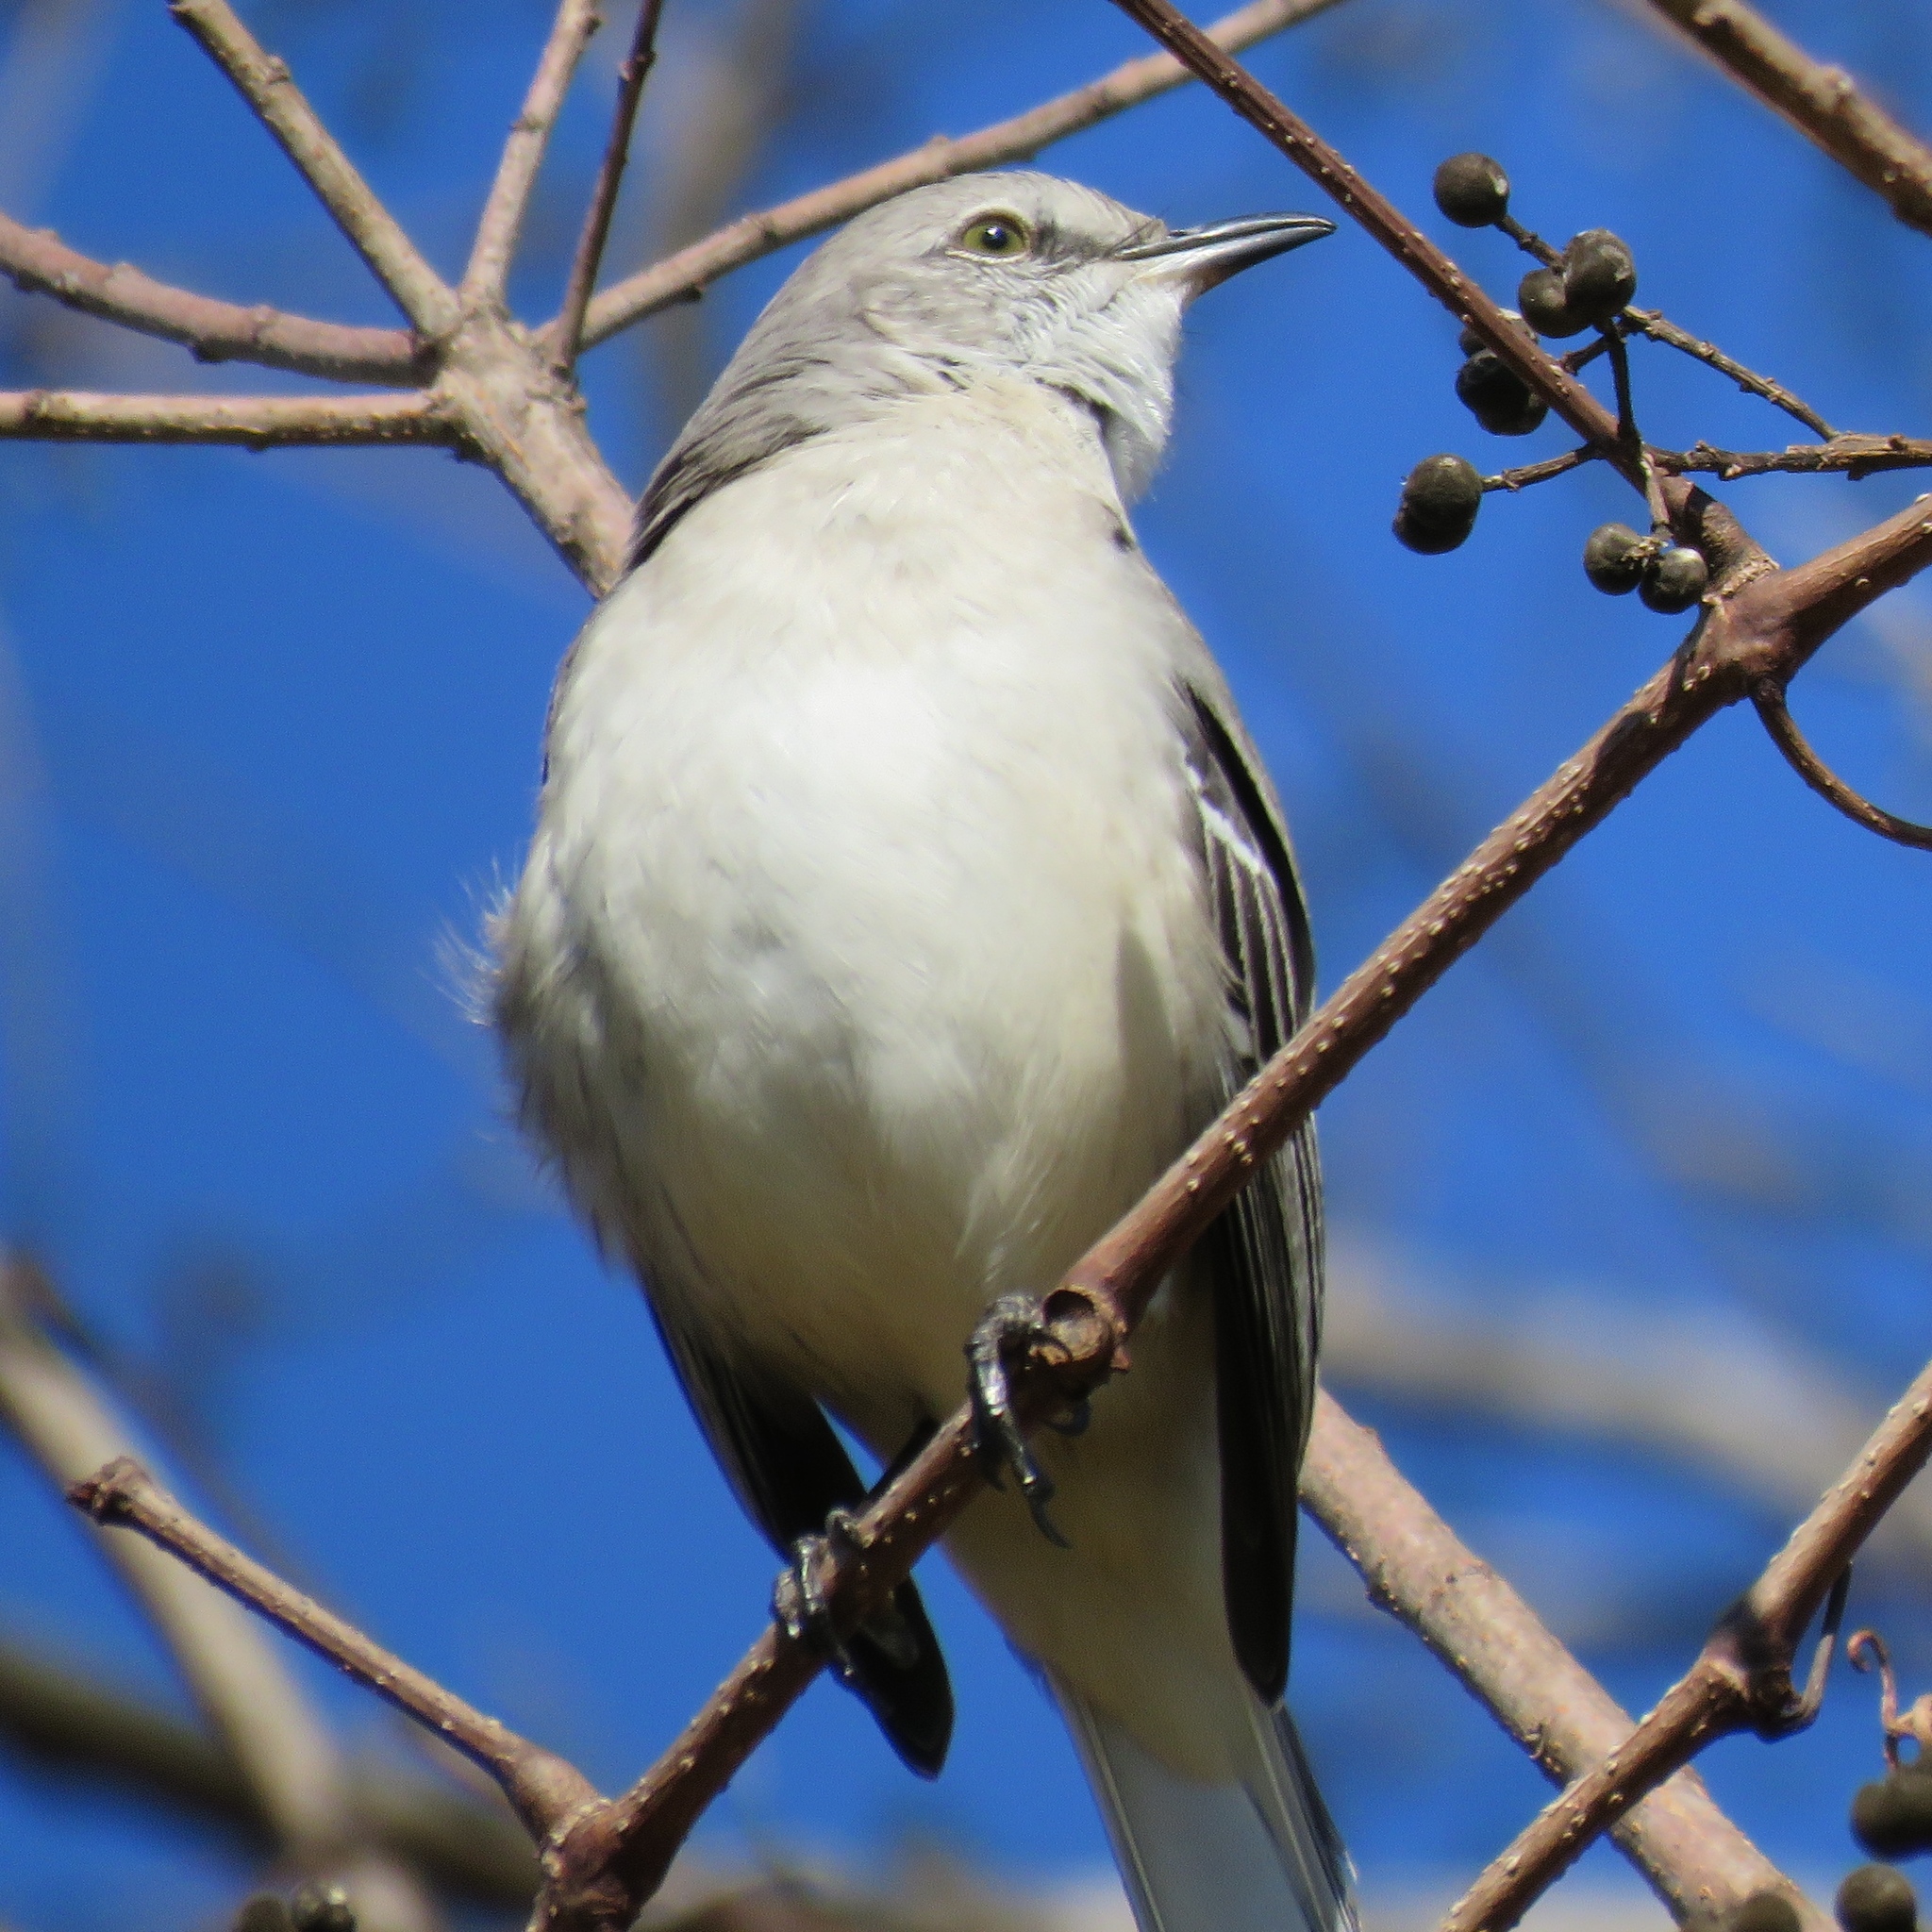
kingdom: Animalia
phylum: Chordata
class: Aves
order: Passeriformes
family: Mimidae
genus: Mimus
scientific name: Mimus polyglottos
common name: Northern mockingbird
